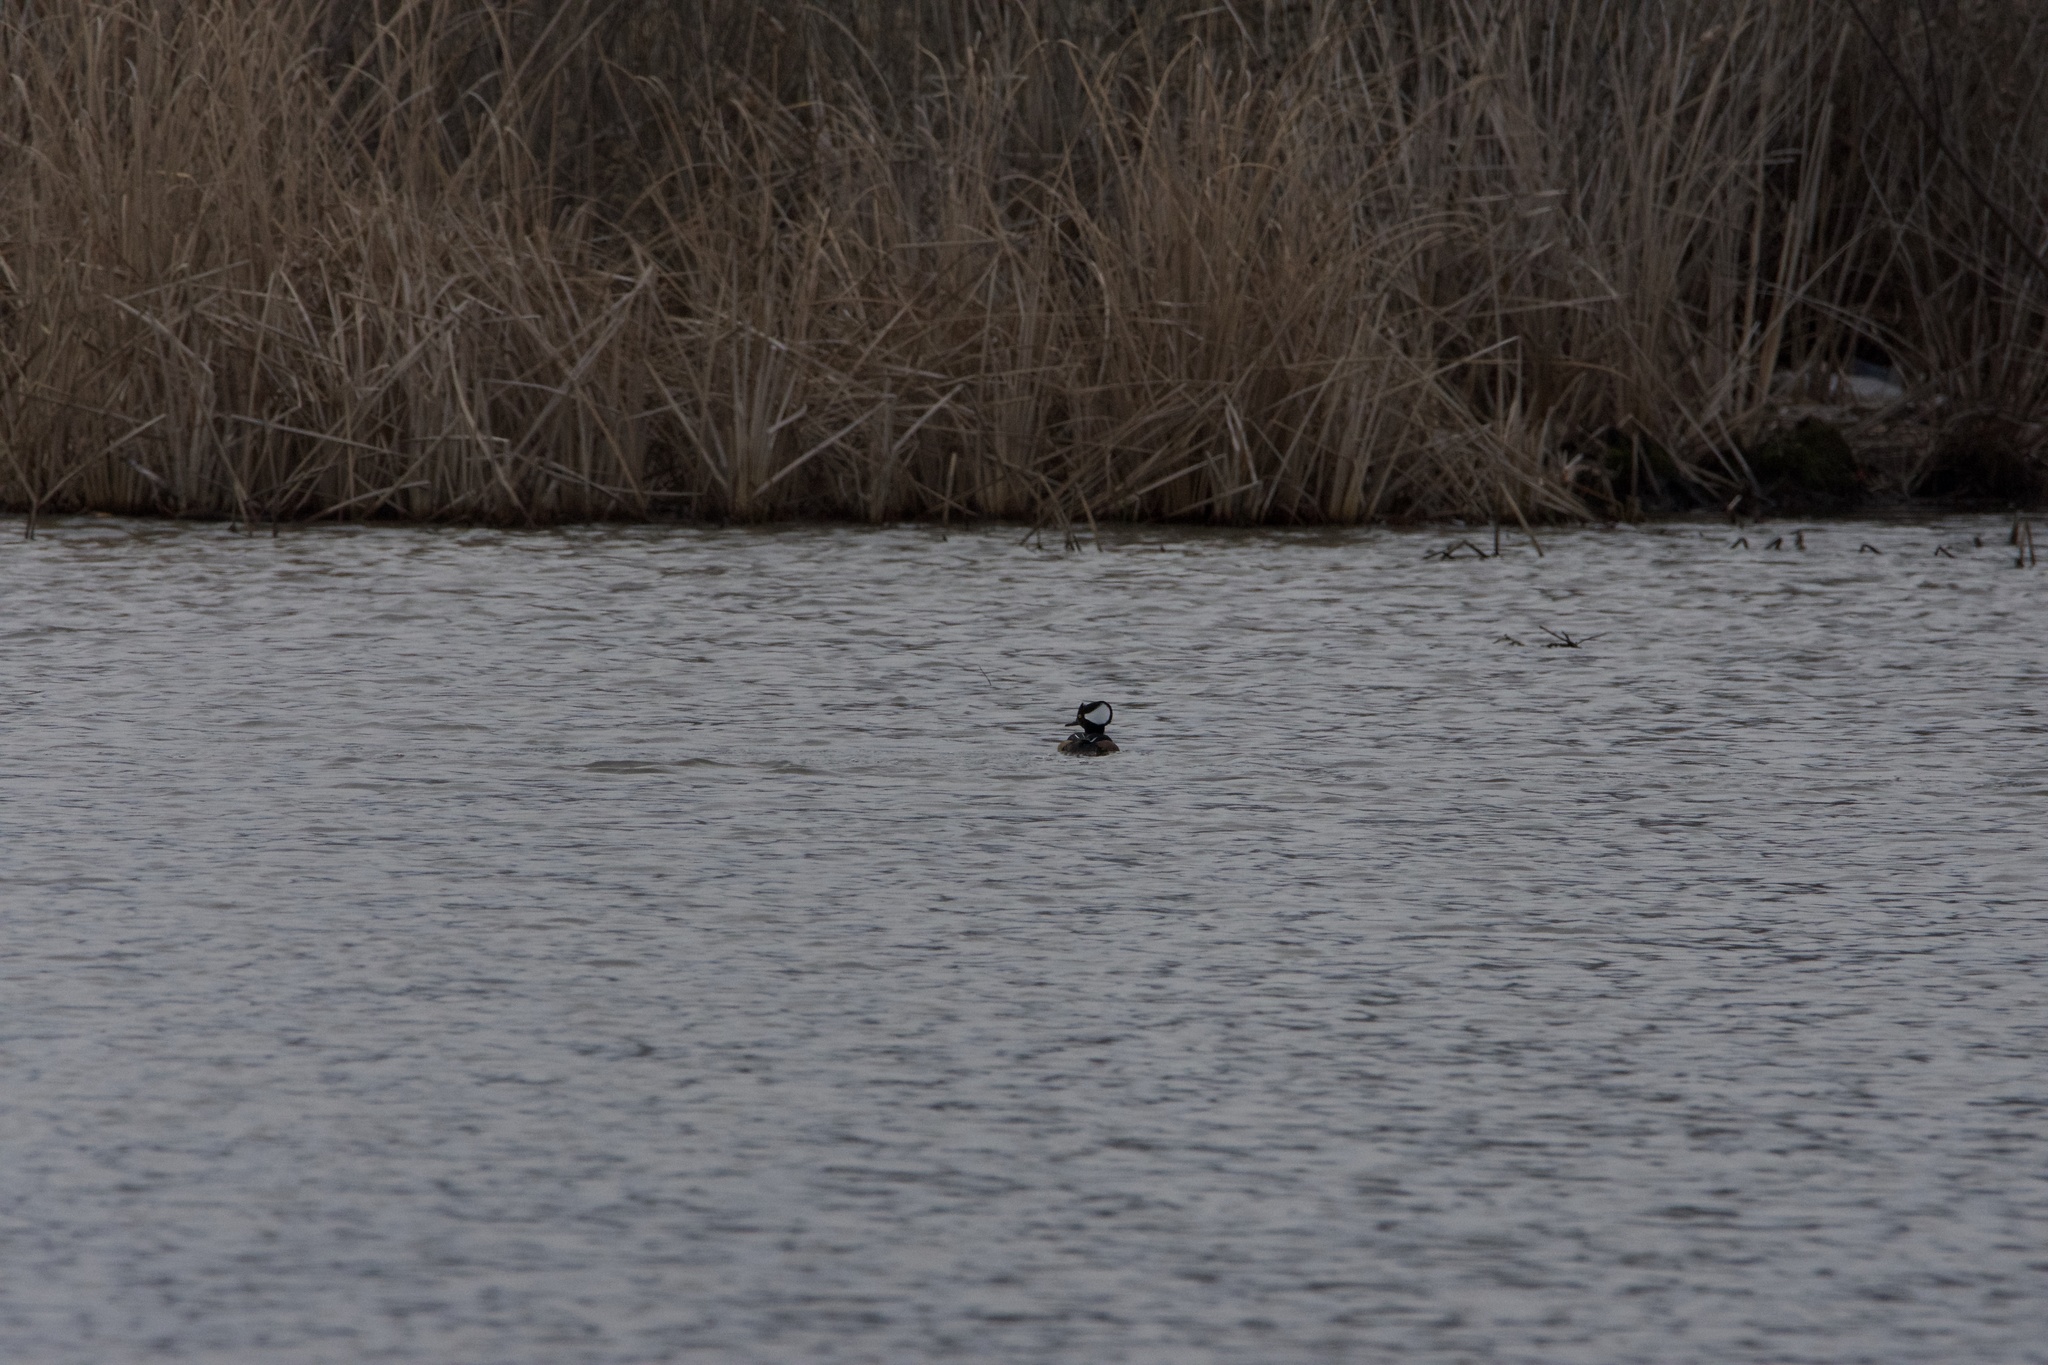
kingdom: Animalia
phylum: Chordata
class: Aves
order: Anseriformes
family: Anatidae
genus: Lophodytes
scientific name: Lophodytes cucullatus
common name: Hooded merganser
